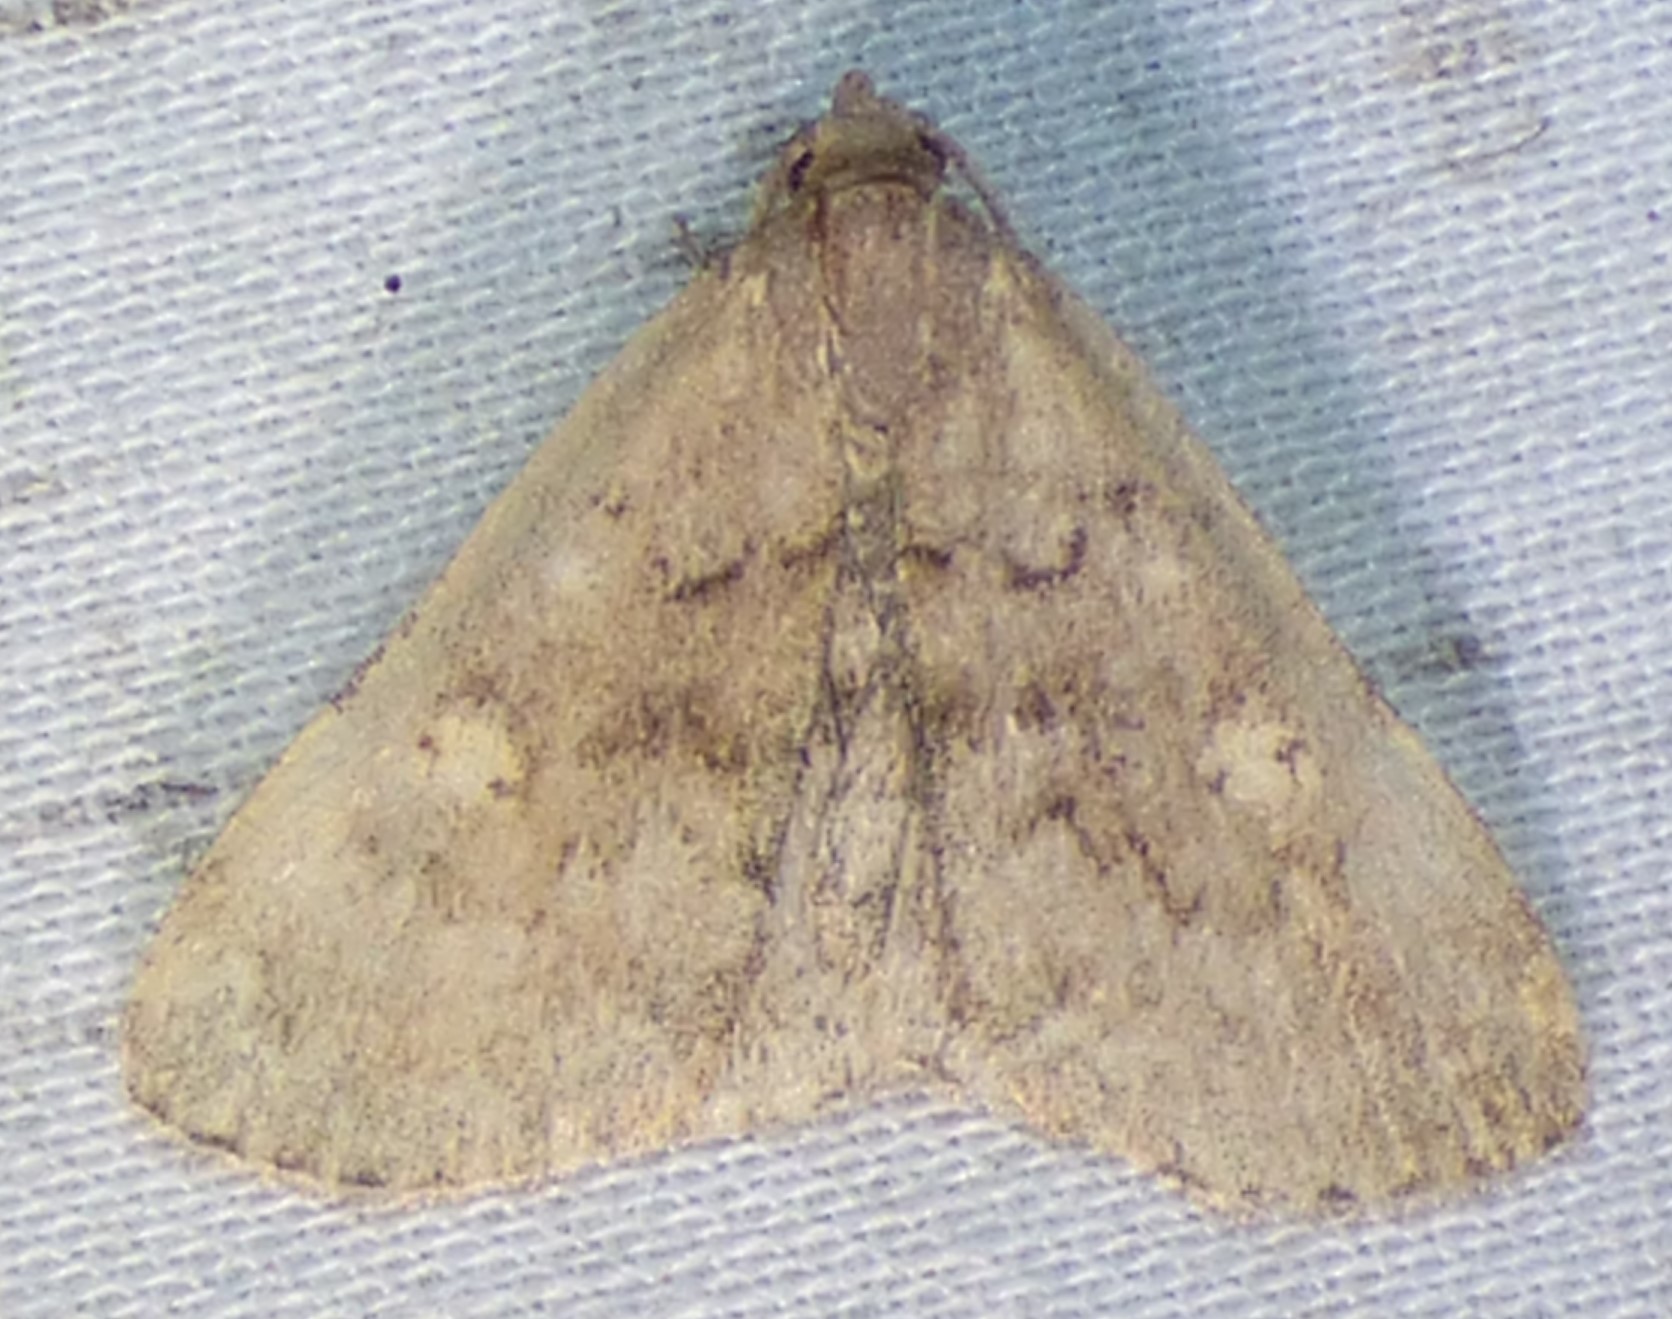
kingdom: Animalia
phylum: Arthropoda
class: Insecta
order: Lepidoptera
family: Erebidae
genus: Idia
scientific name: Idia aemula
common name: Common idia moth
